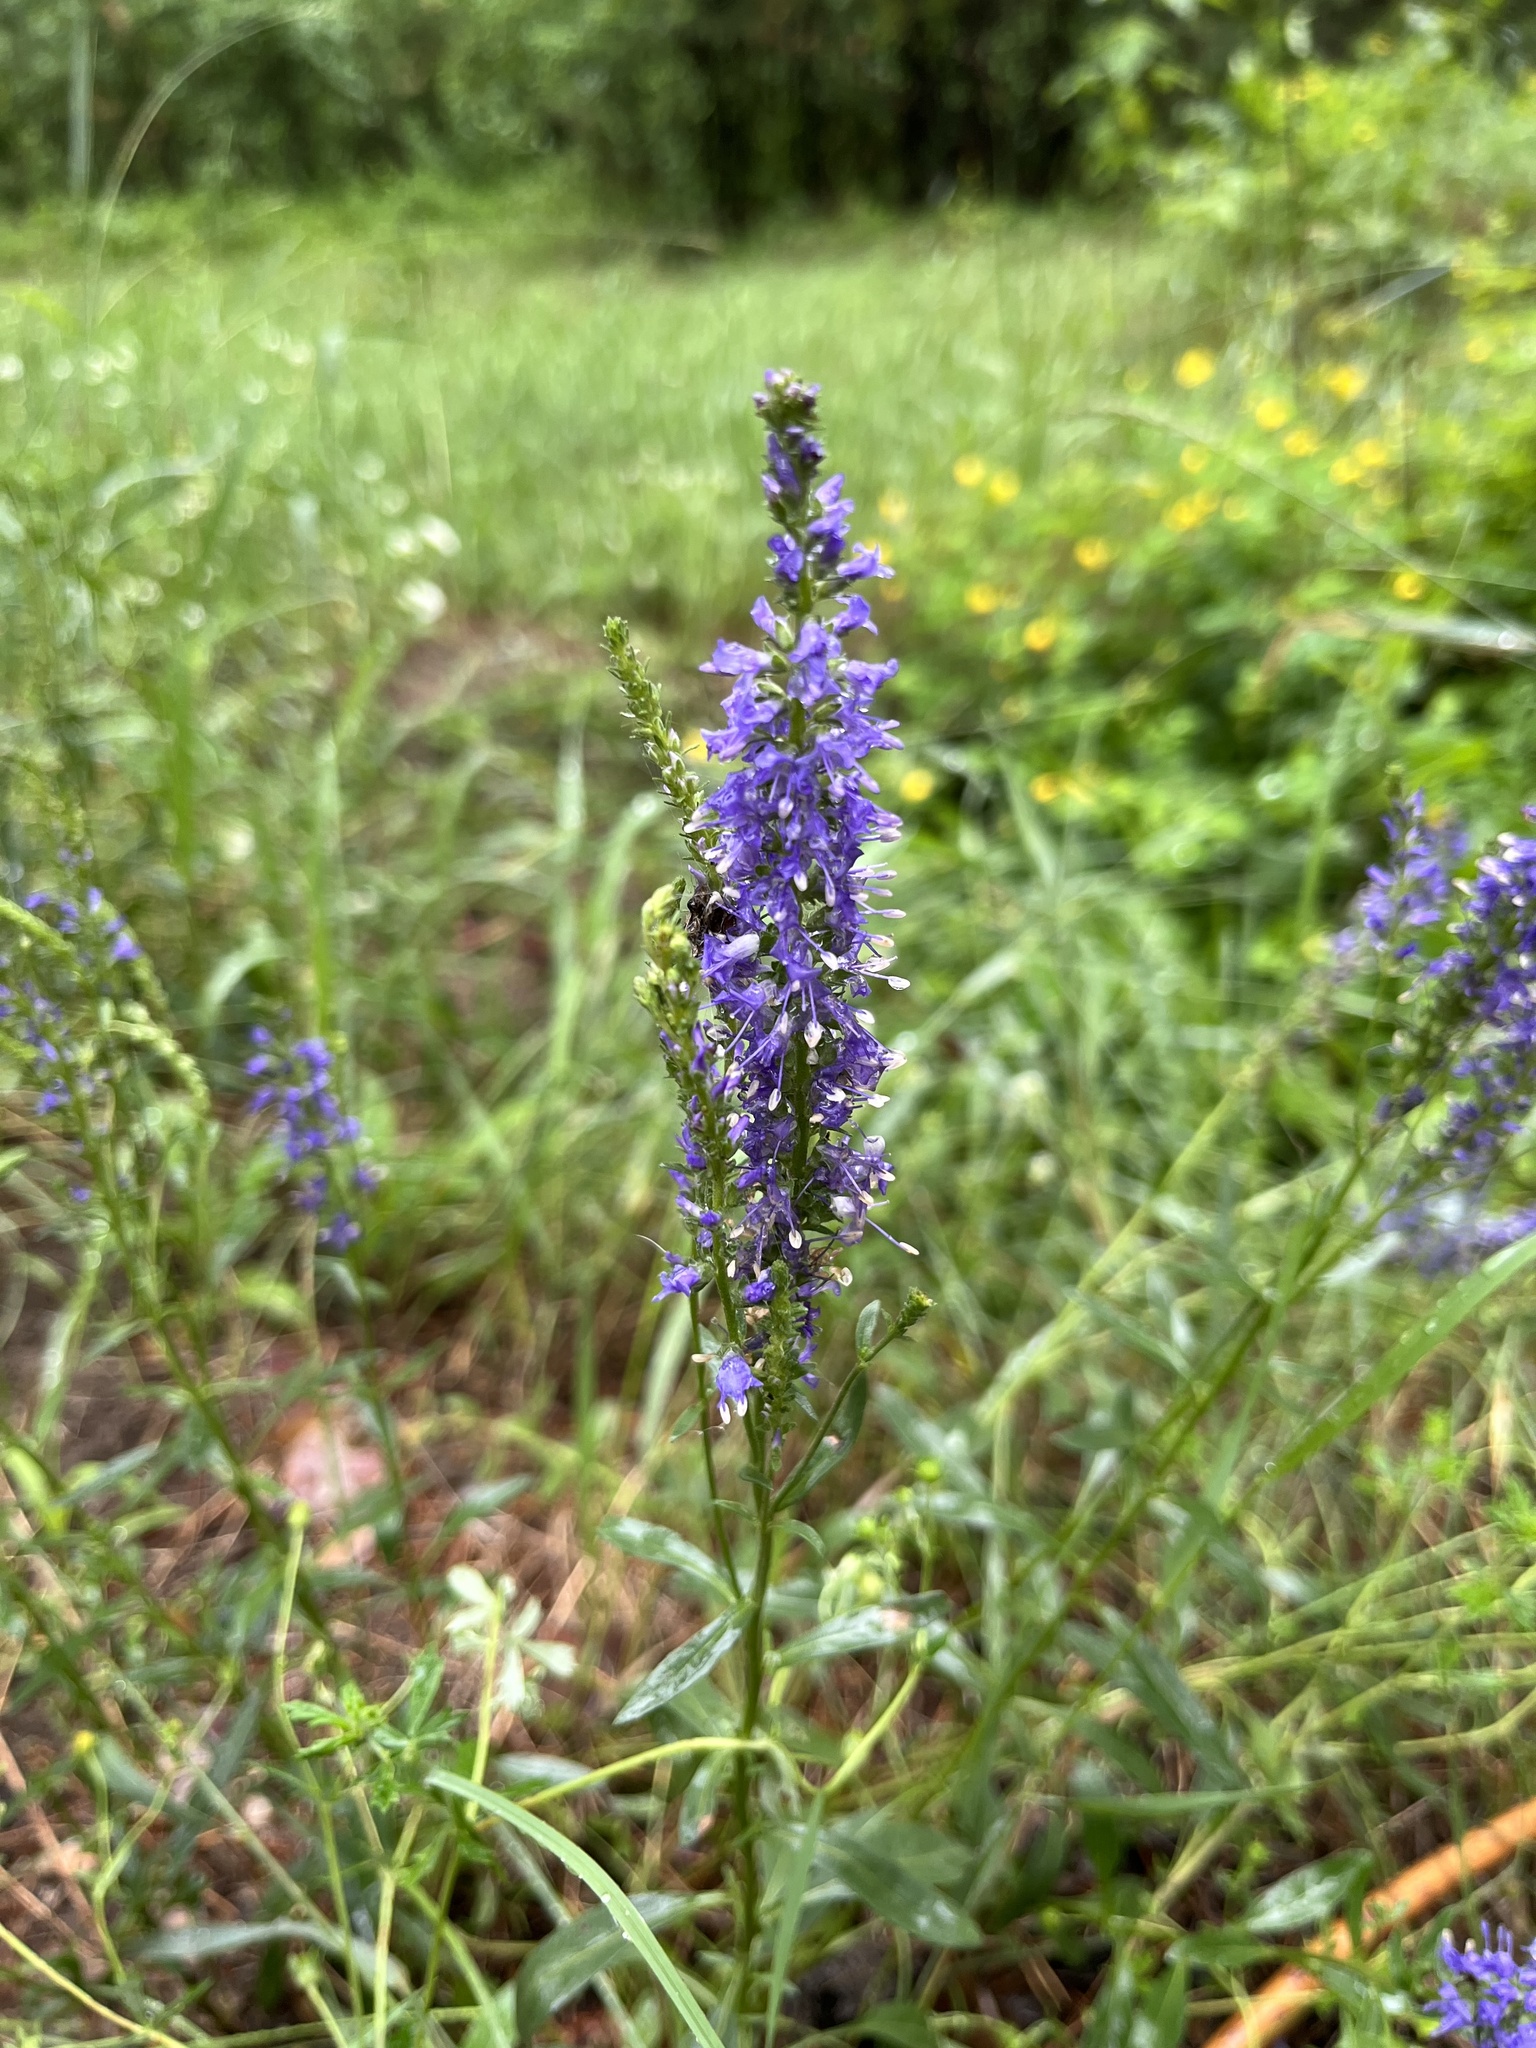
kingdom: Plantae
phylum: Tracheophyta
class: Magnoliopsida
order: Lamiales
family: Plantaginaceae
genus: Veronica
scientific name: Veronica spicata
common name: Spiked speedwell
